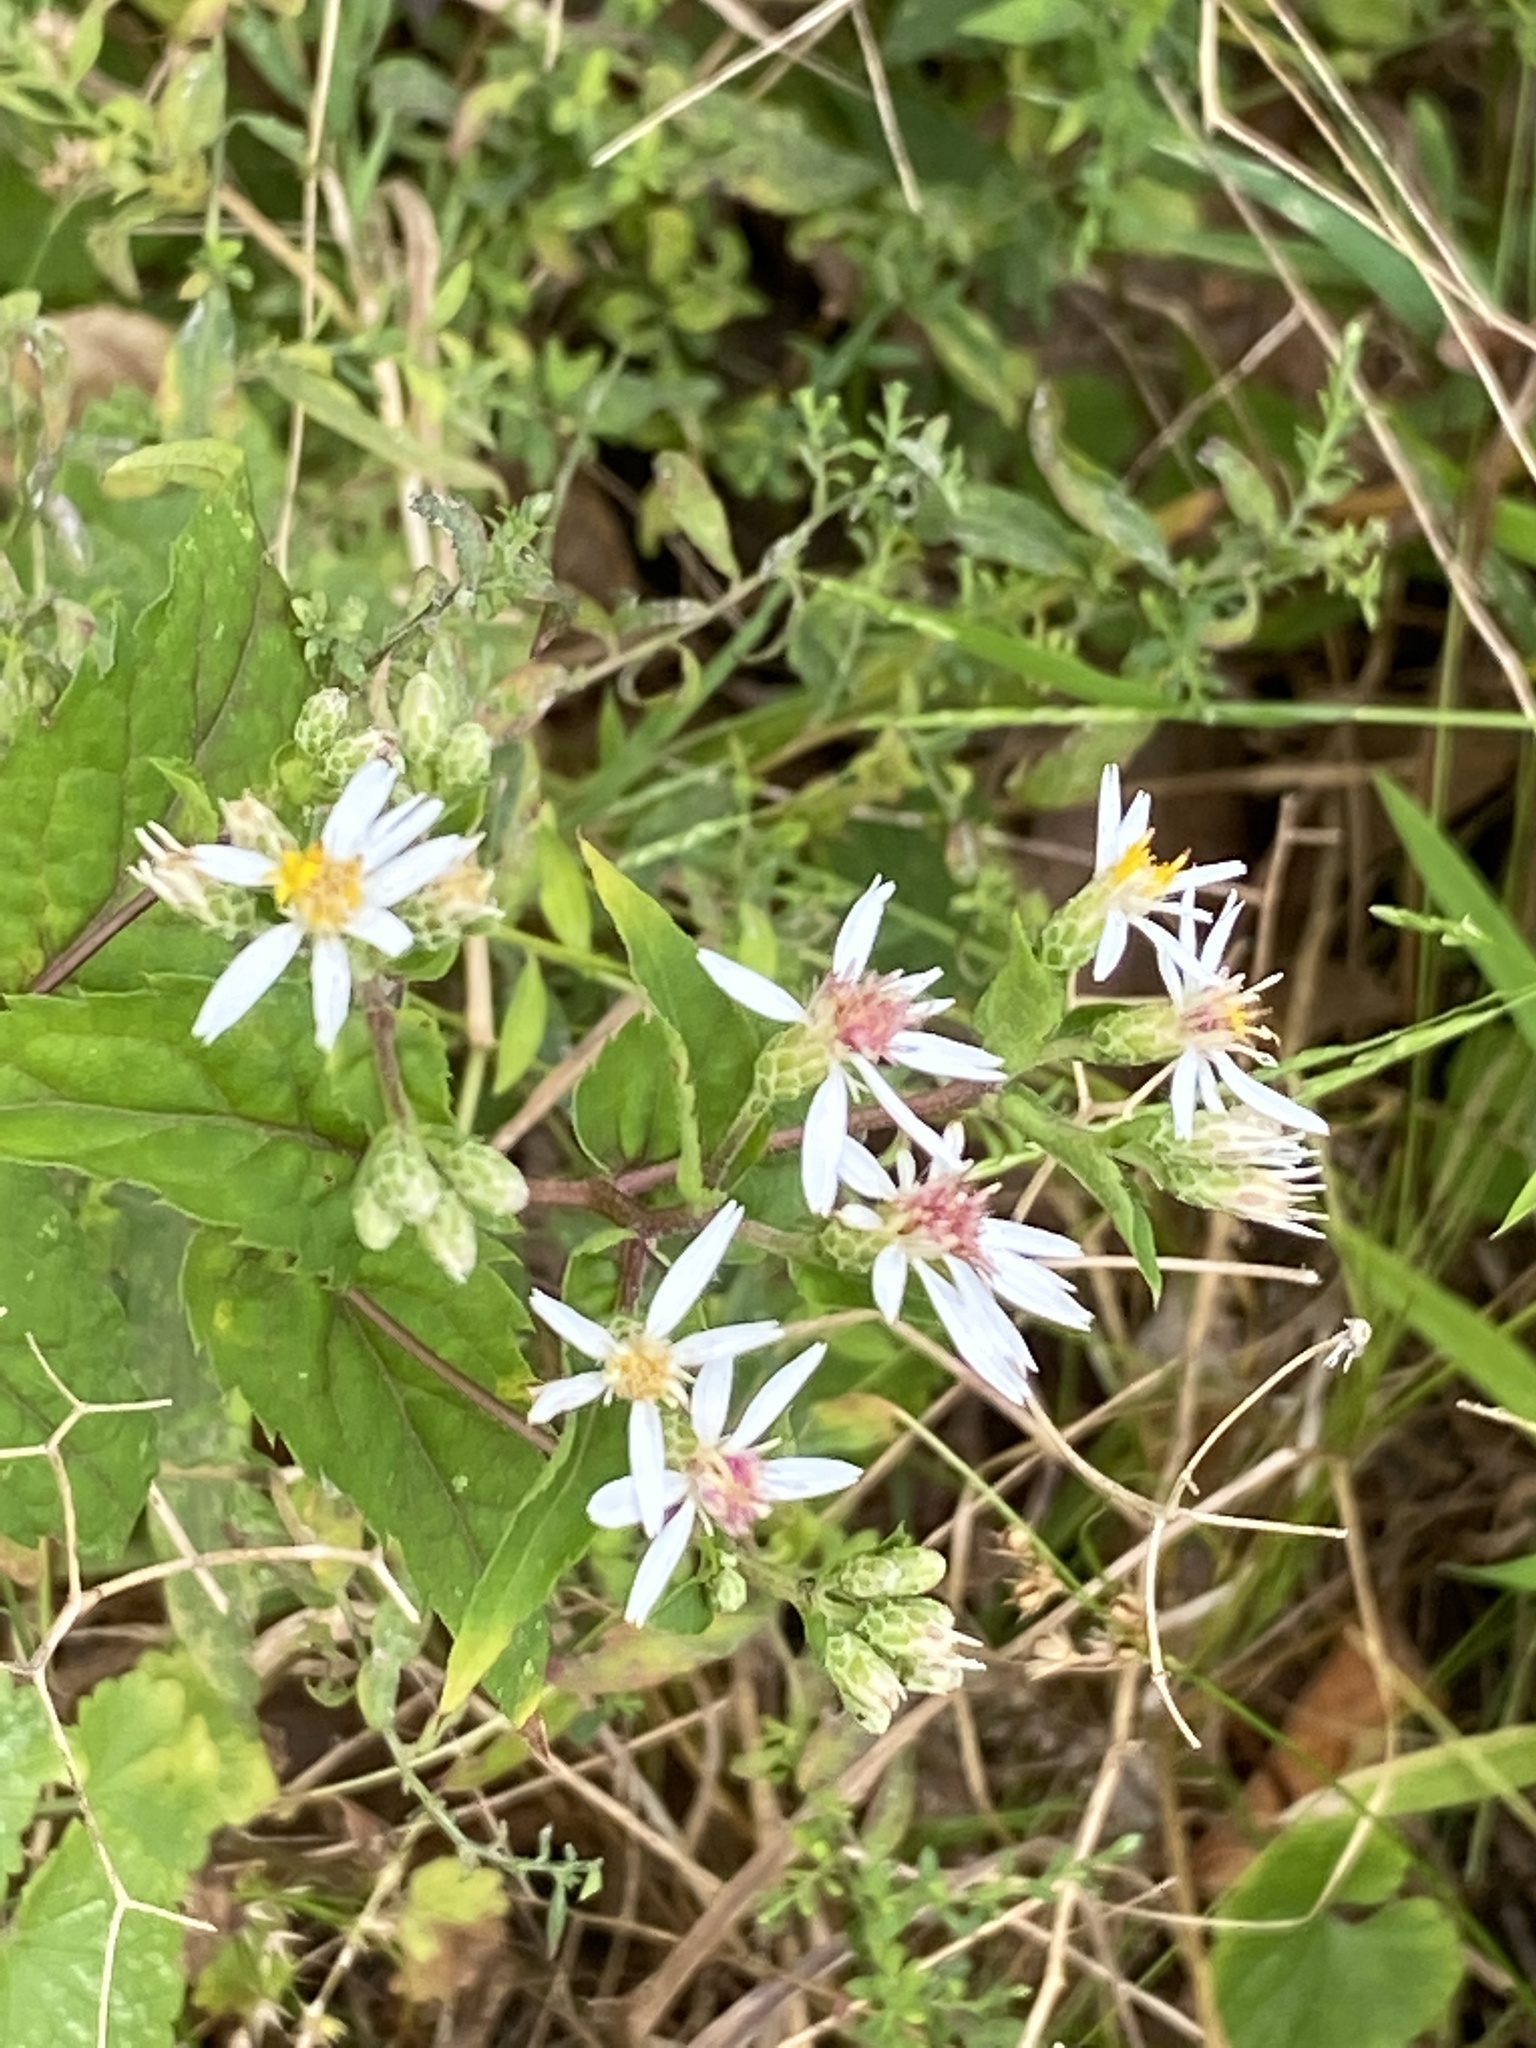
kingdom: Plantae
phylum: Tracheophyta
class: Magnoliopsida
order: Asterales
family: Asteraceae
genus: Eurybia
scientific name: Eurybia divaricata
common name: White wood aster
